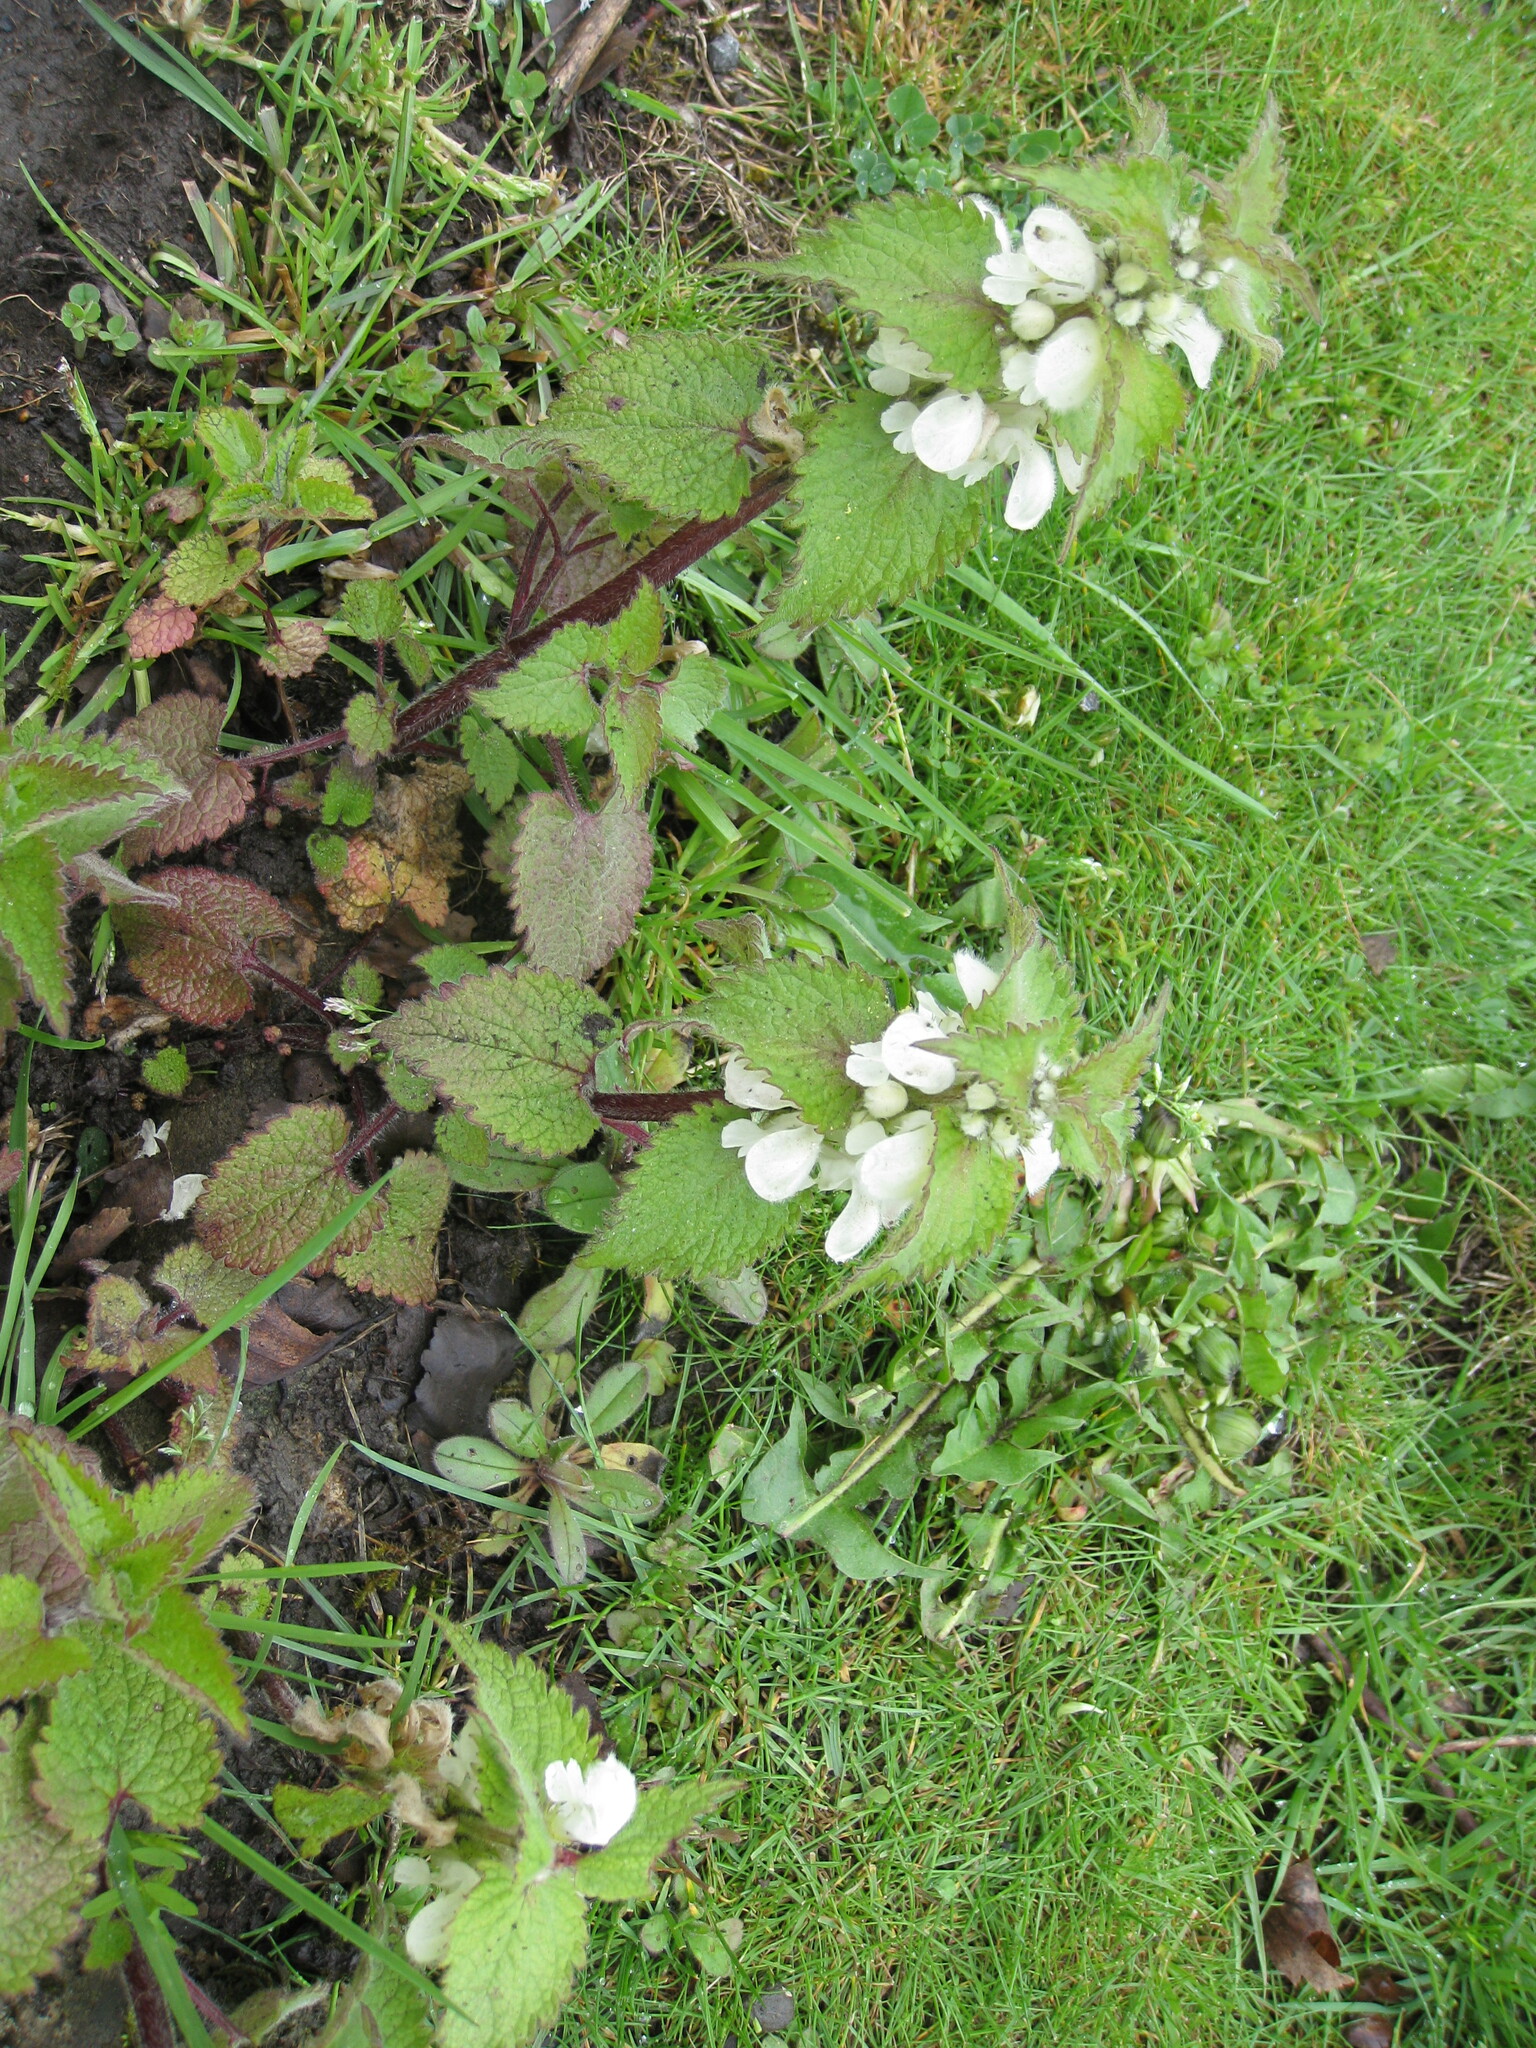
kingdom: Plantae
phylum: Tracheophyta
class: Magnoliopsida
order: Lamiales
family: Lamiaceae
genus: Lamium
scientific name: Lamium album
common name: White dead-nettle
